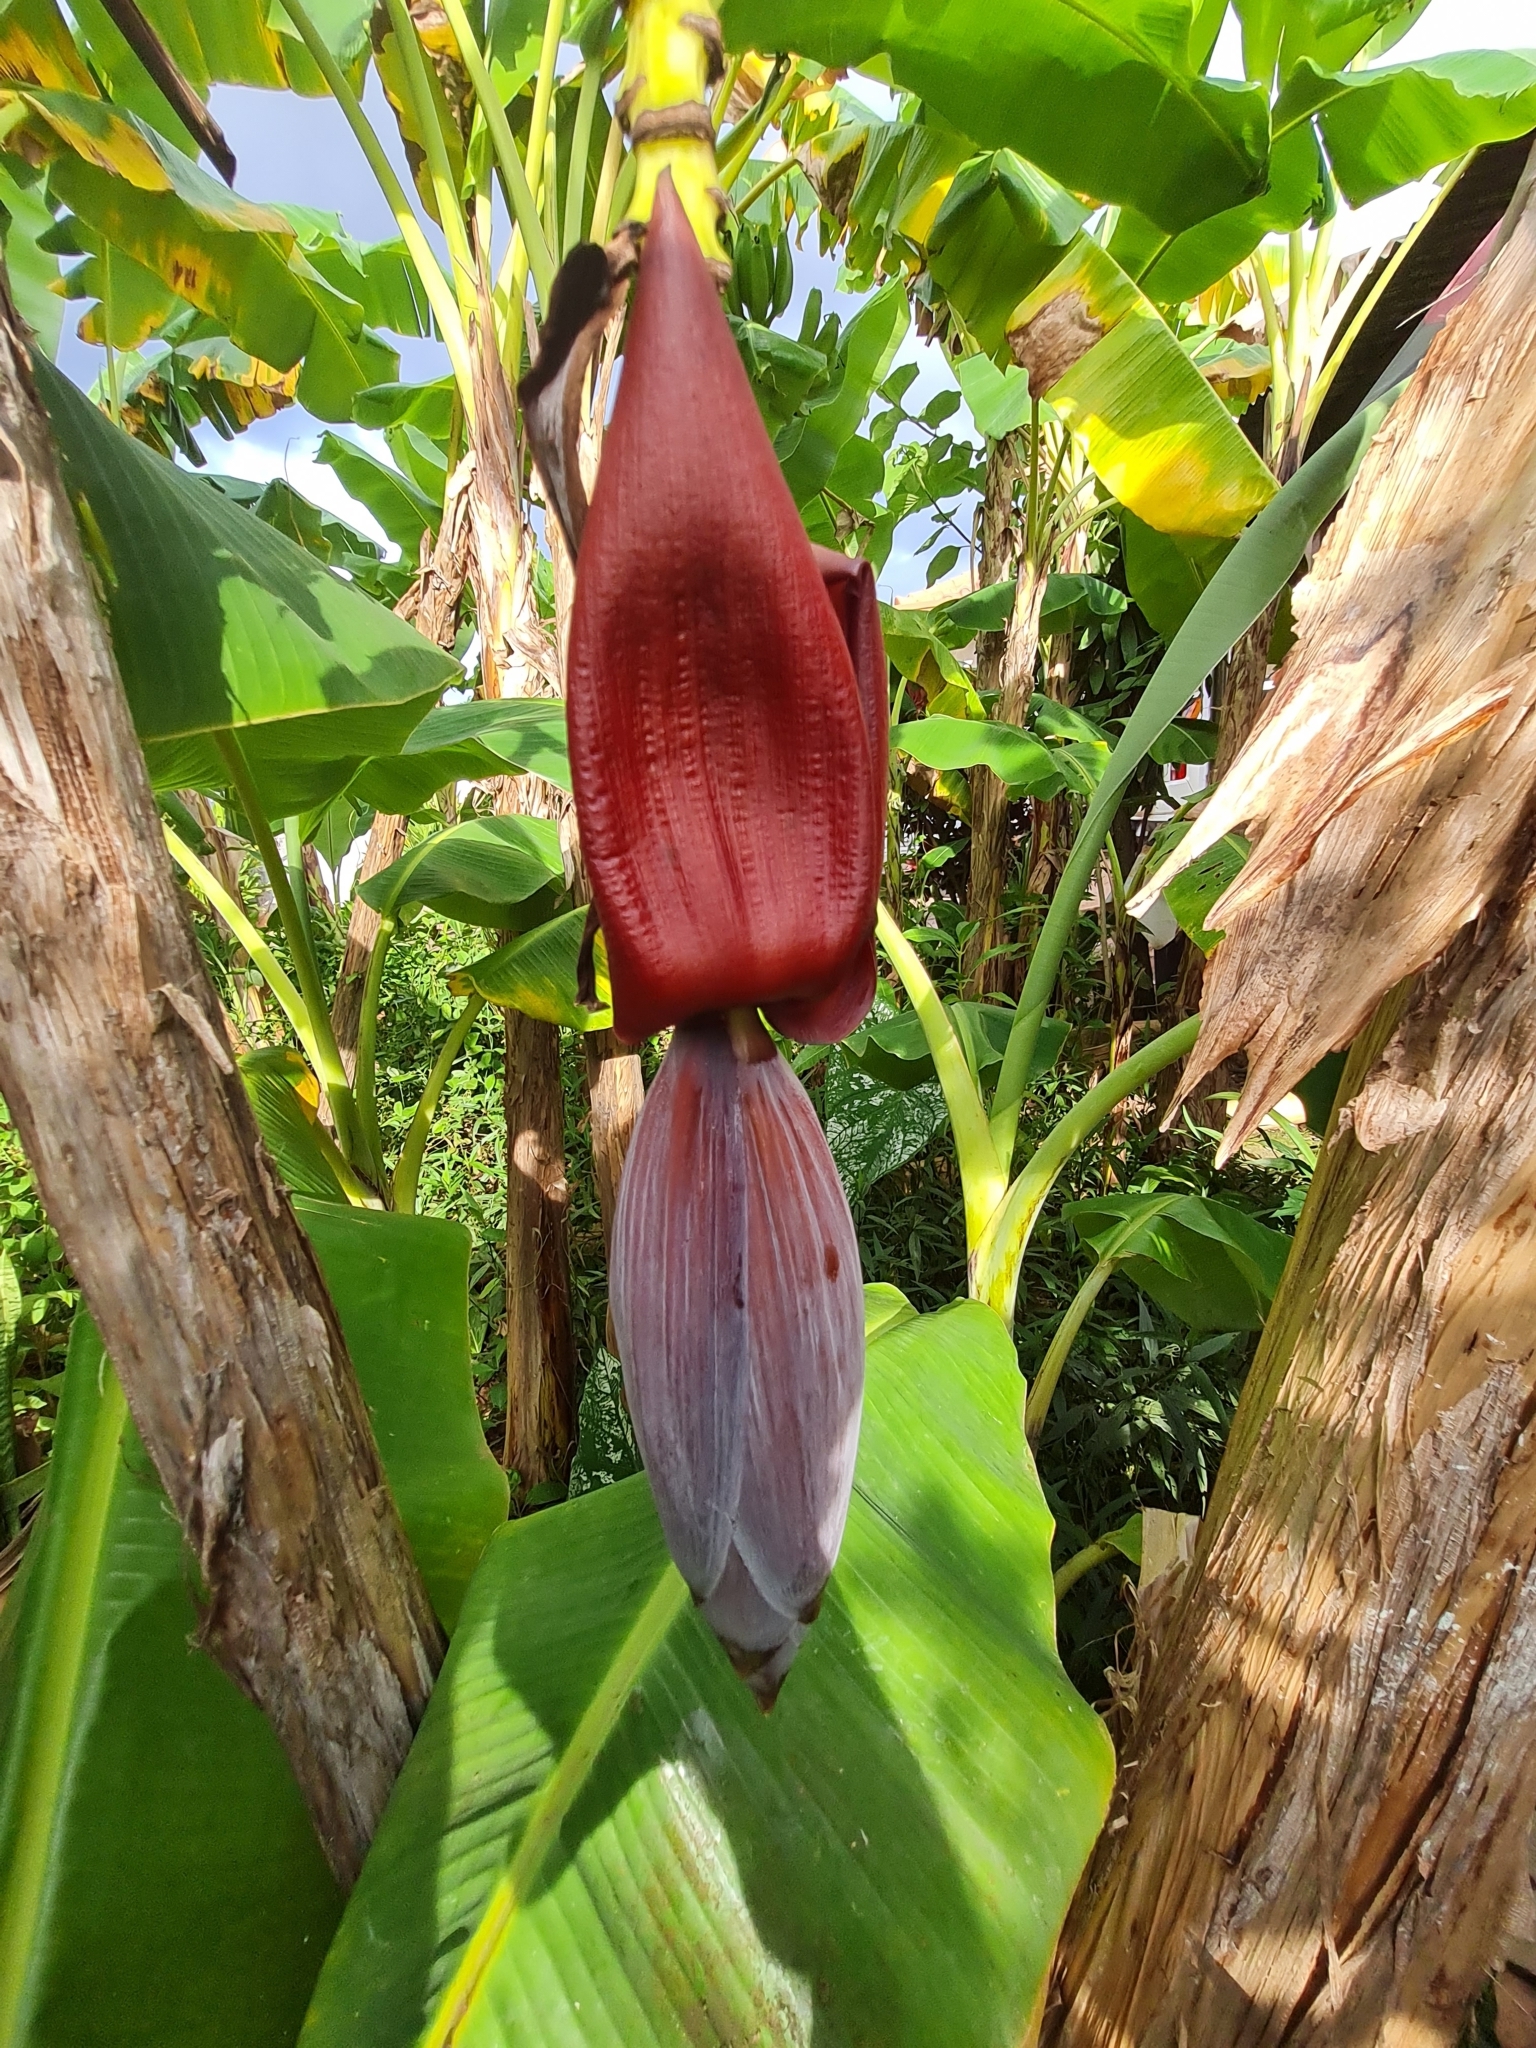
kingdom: Plantae
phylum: Tracheophyta
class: Liliopsida
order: Zingiberales
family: Musaceae
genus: Musa
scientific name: Musa paradisiaca
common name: French plantain
